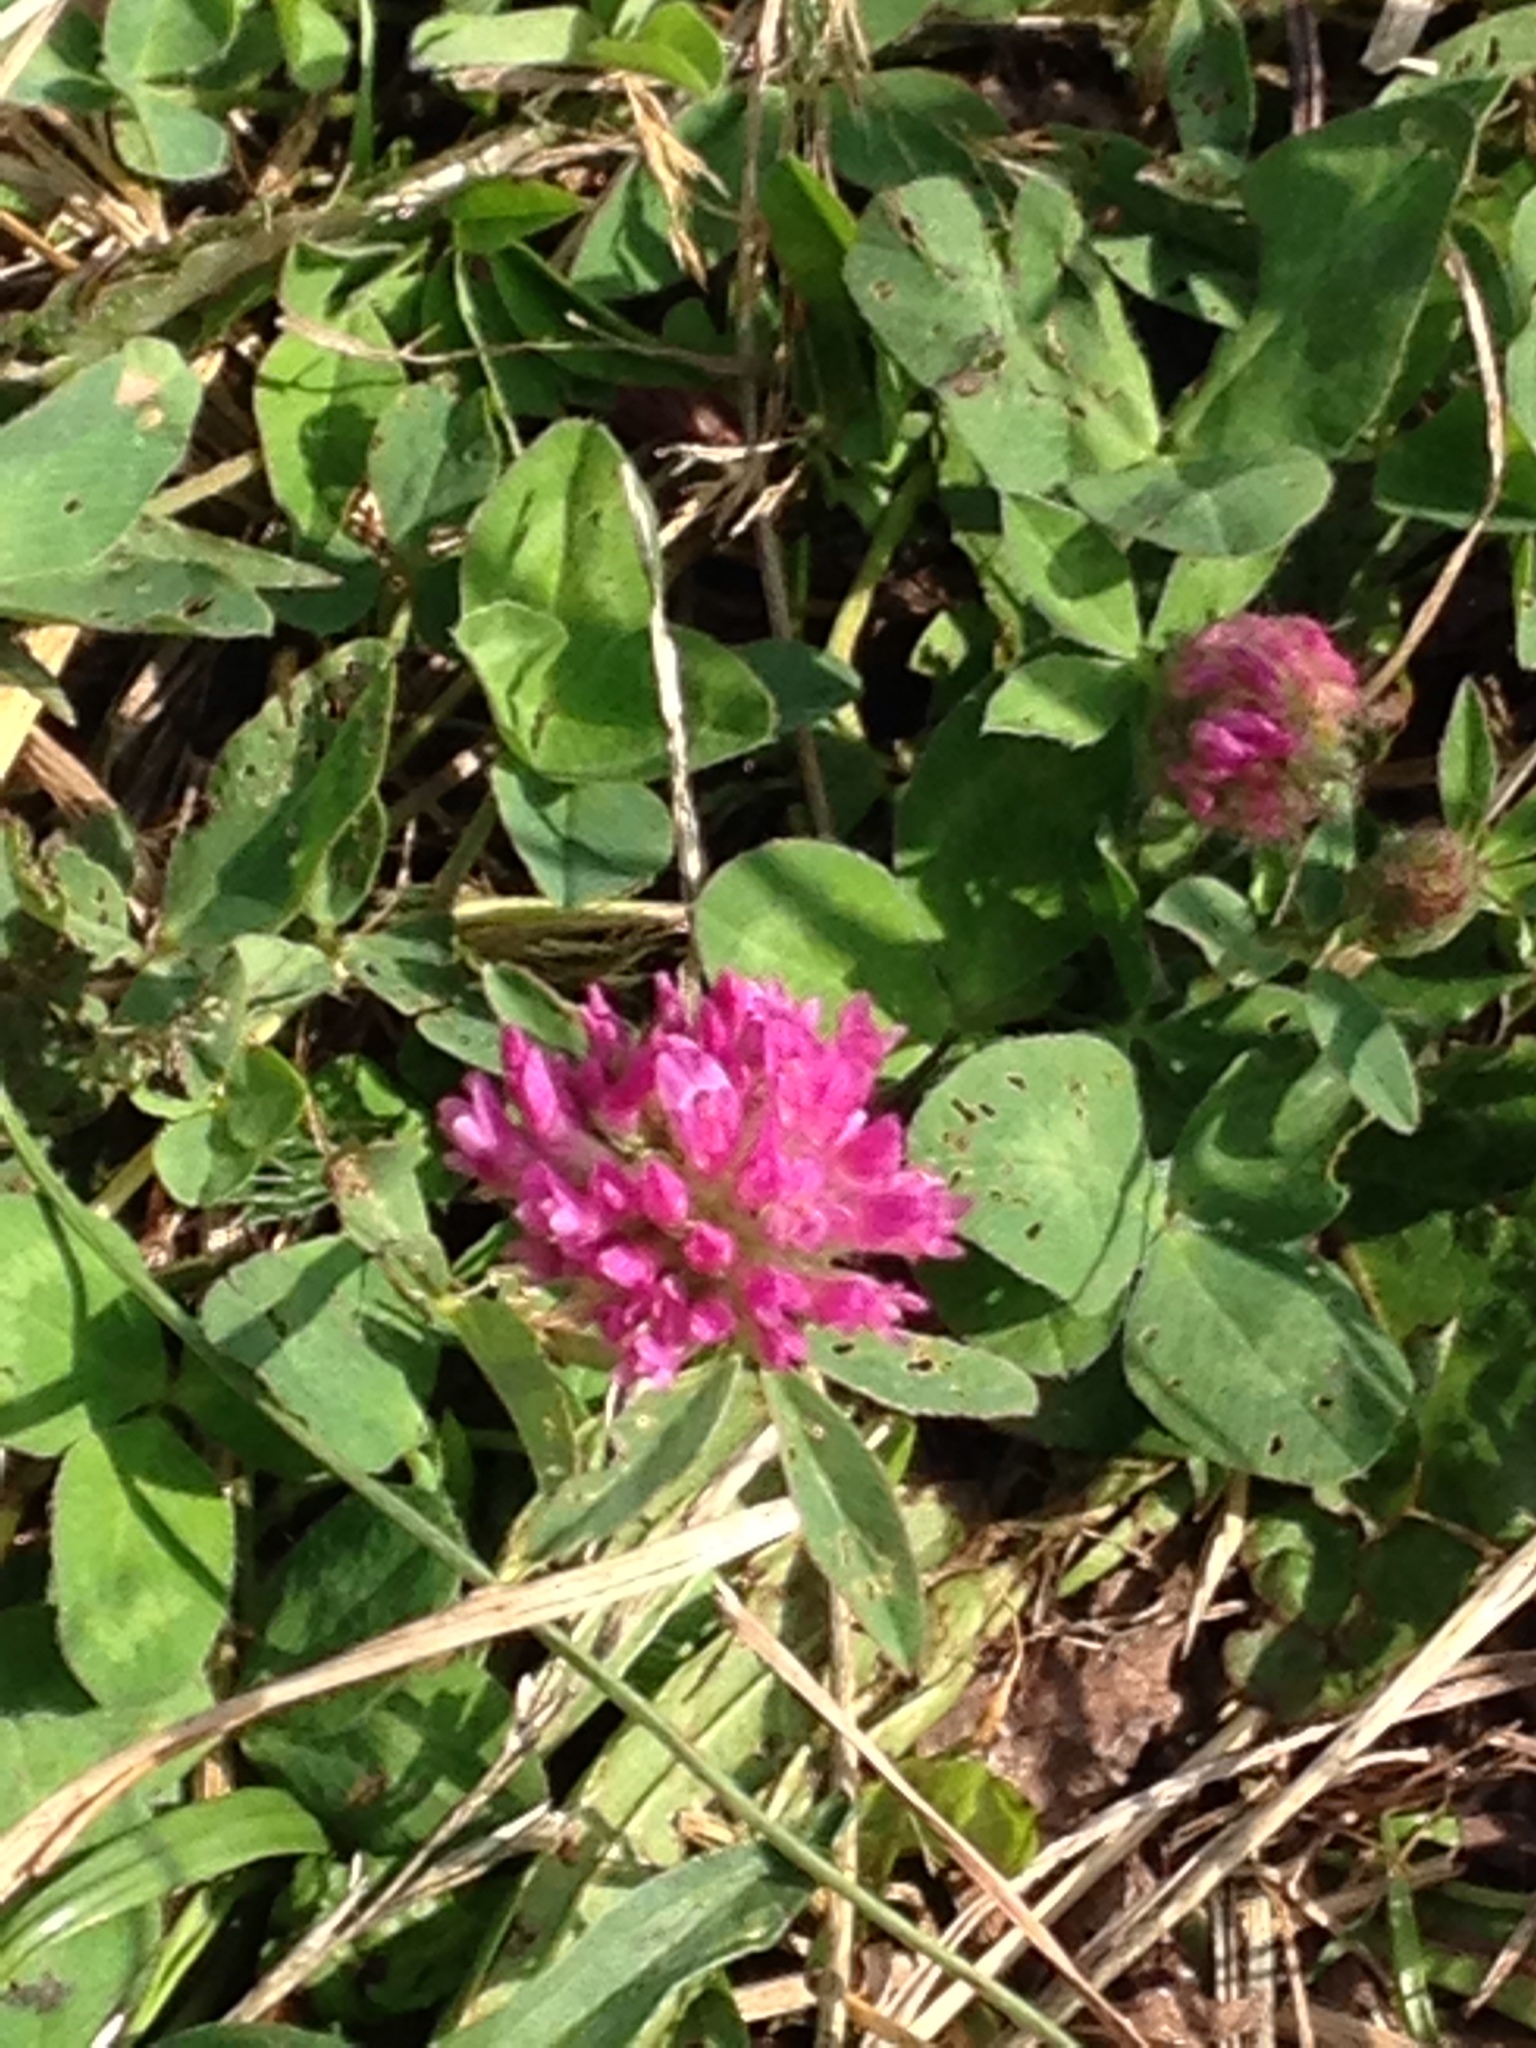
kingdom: Plantae
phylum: Tracheophyta
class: Magnoliopsida
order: Fabales
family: Fabaceae
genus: Trifolium
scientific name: Trifolium pratense
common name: Red clover
